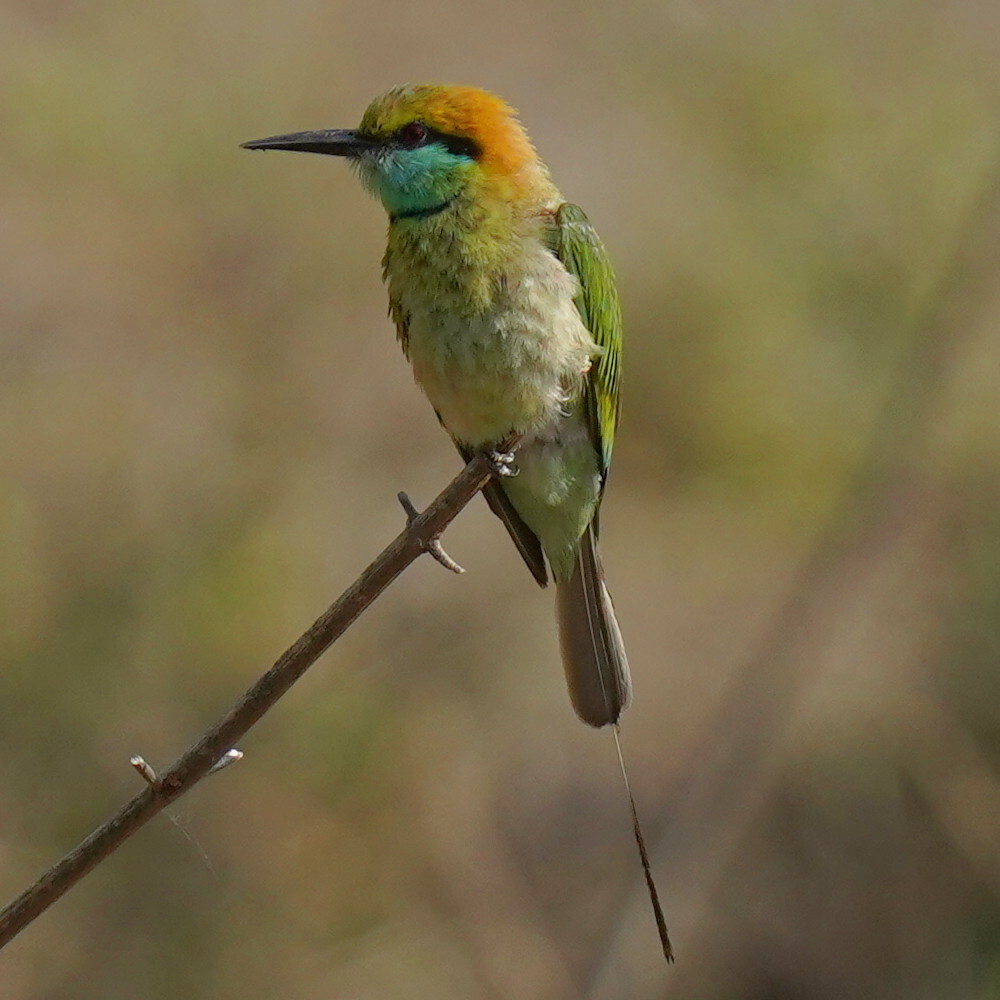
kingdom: Animalia
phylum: Chordata
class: Aves
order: Coraciiformes
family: Meropidae
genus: Merops
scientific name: Merops orientalis
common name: Green bee-eater
